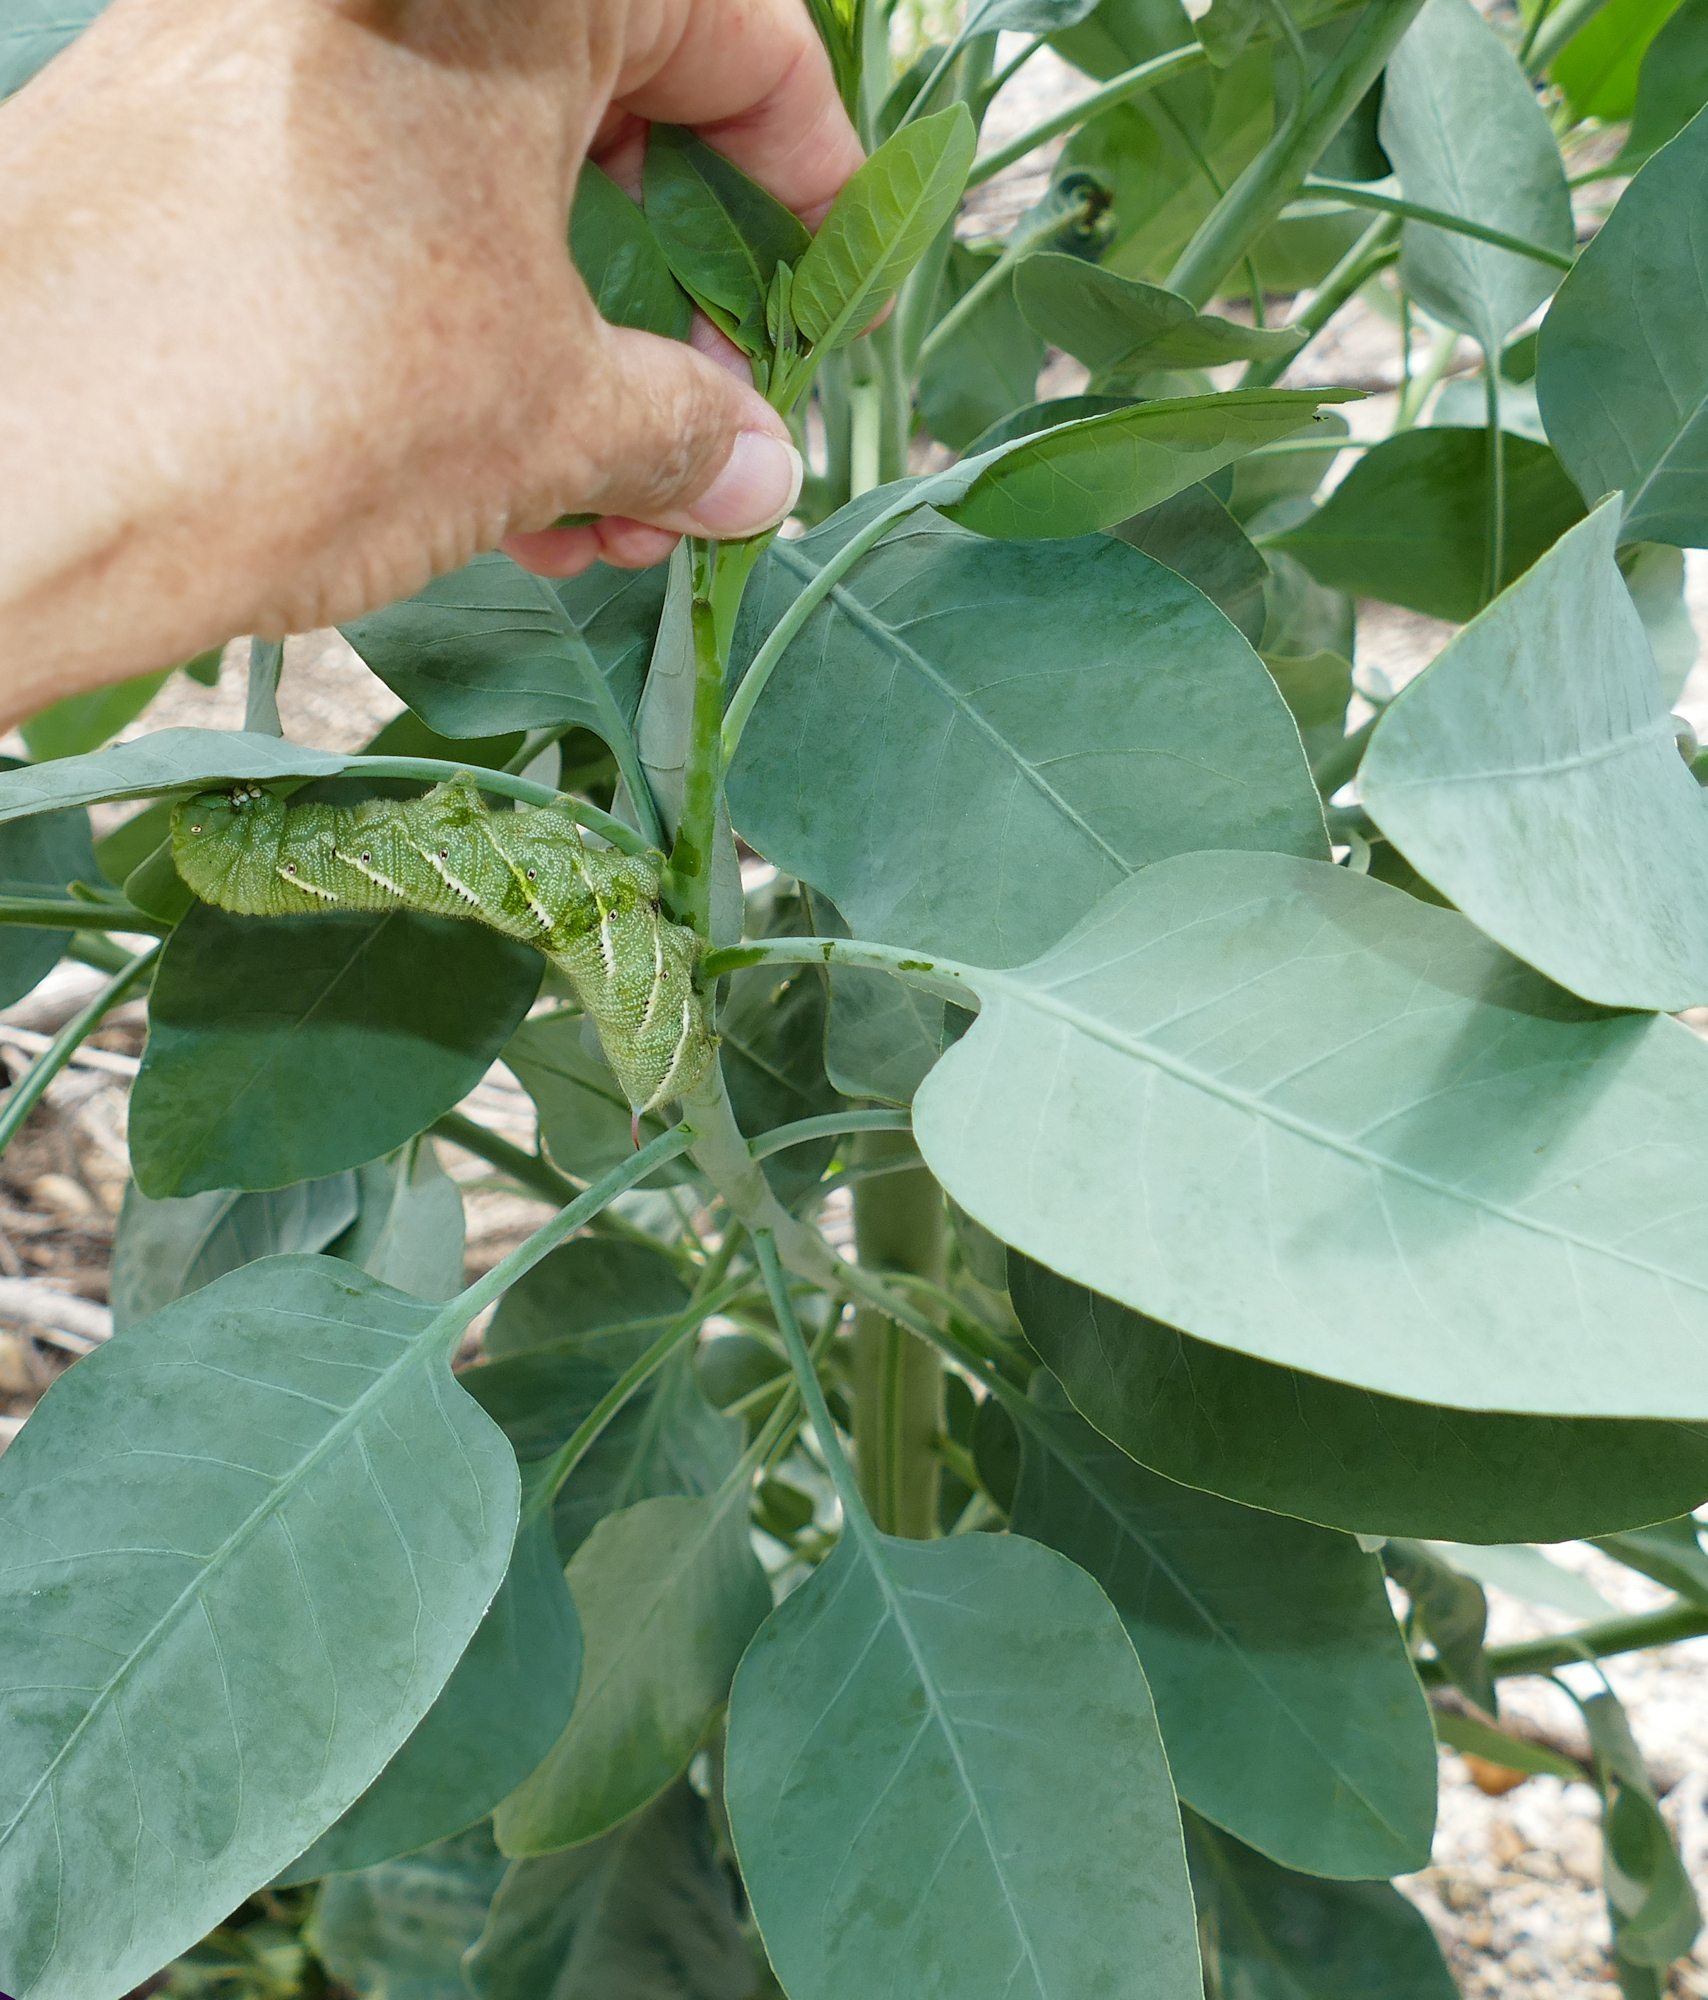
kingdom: Animalia
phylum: Arthropoda
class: Insecta
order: Lepidoptera
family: Sphingidae
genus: Manduca
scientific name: Manduca sexta
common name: Carolina sphinx
